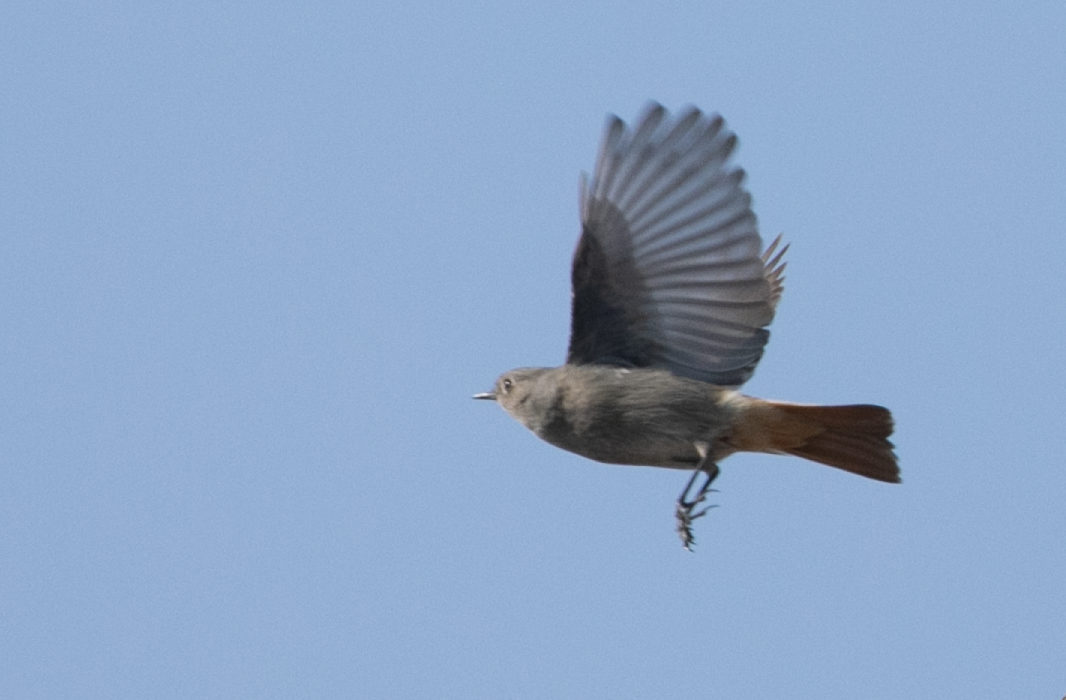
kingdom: Animalia
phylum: Chordata
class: Aves
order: Passeriformes
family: Muscicapidae
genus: Phoenicurus
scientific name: Phoenicurus ochruros
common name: Black redstart
